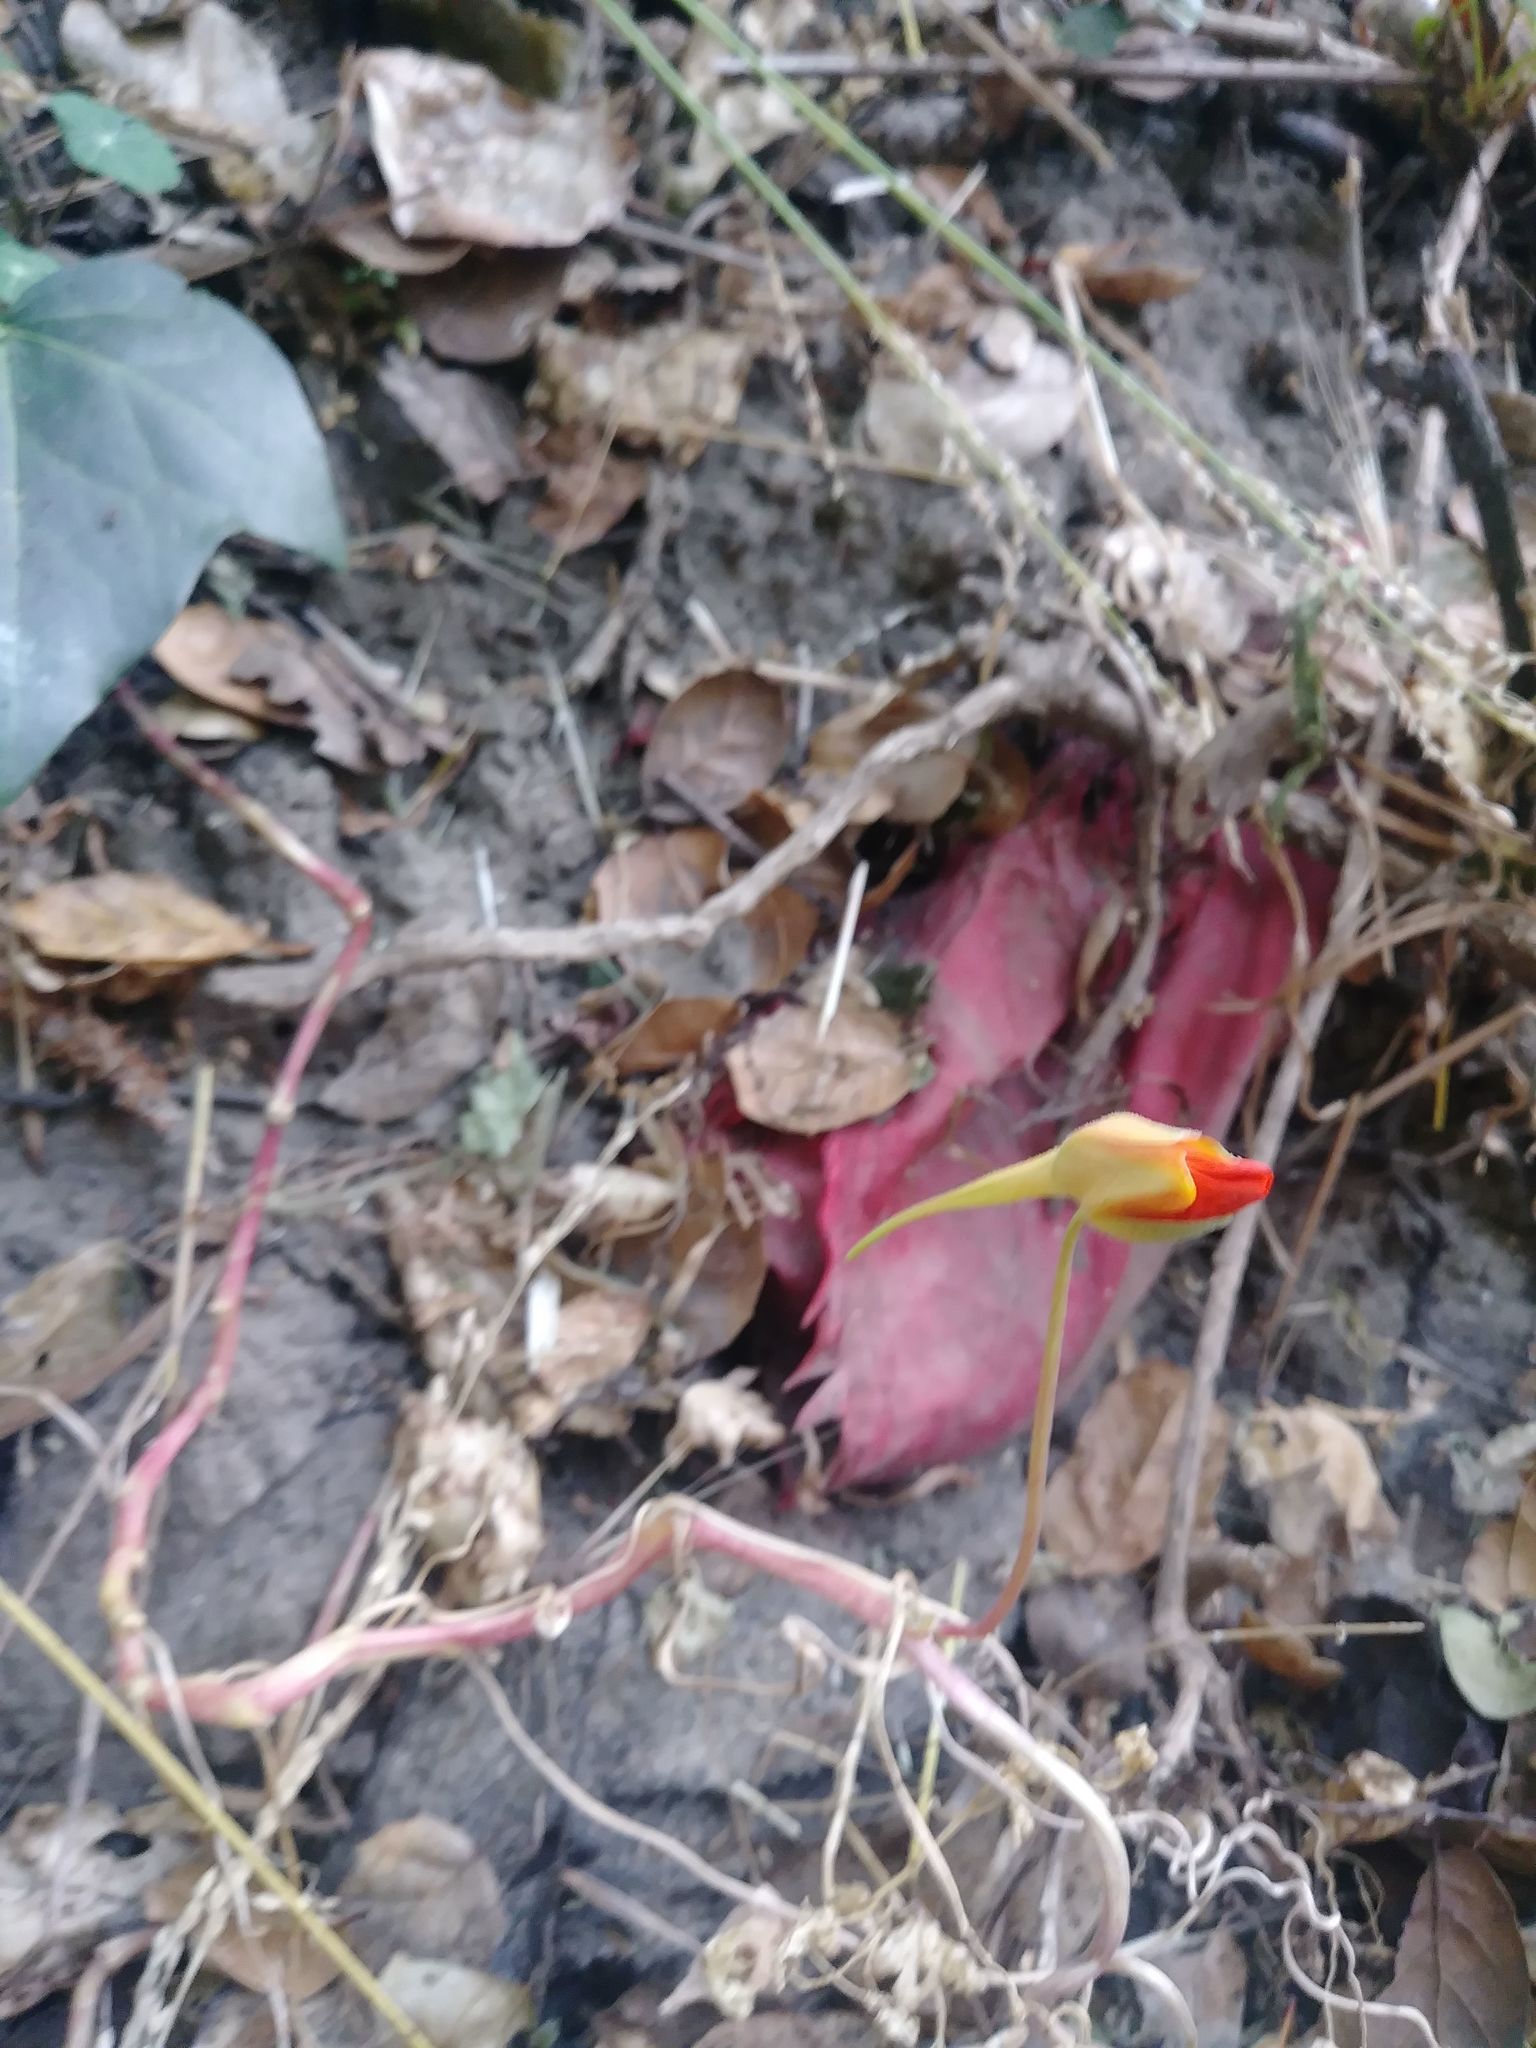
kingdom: Plantae
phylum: Tracheophyta
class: Magnoliopsida
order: Brassicales
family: Tropaeolaceae
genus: Tropaeolum
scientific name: Tropaeolum majus
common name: Nasturtium
